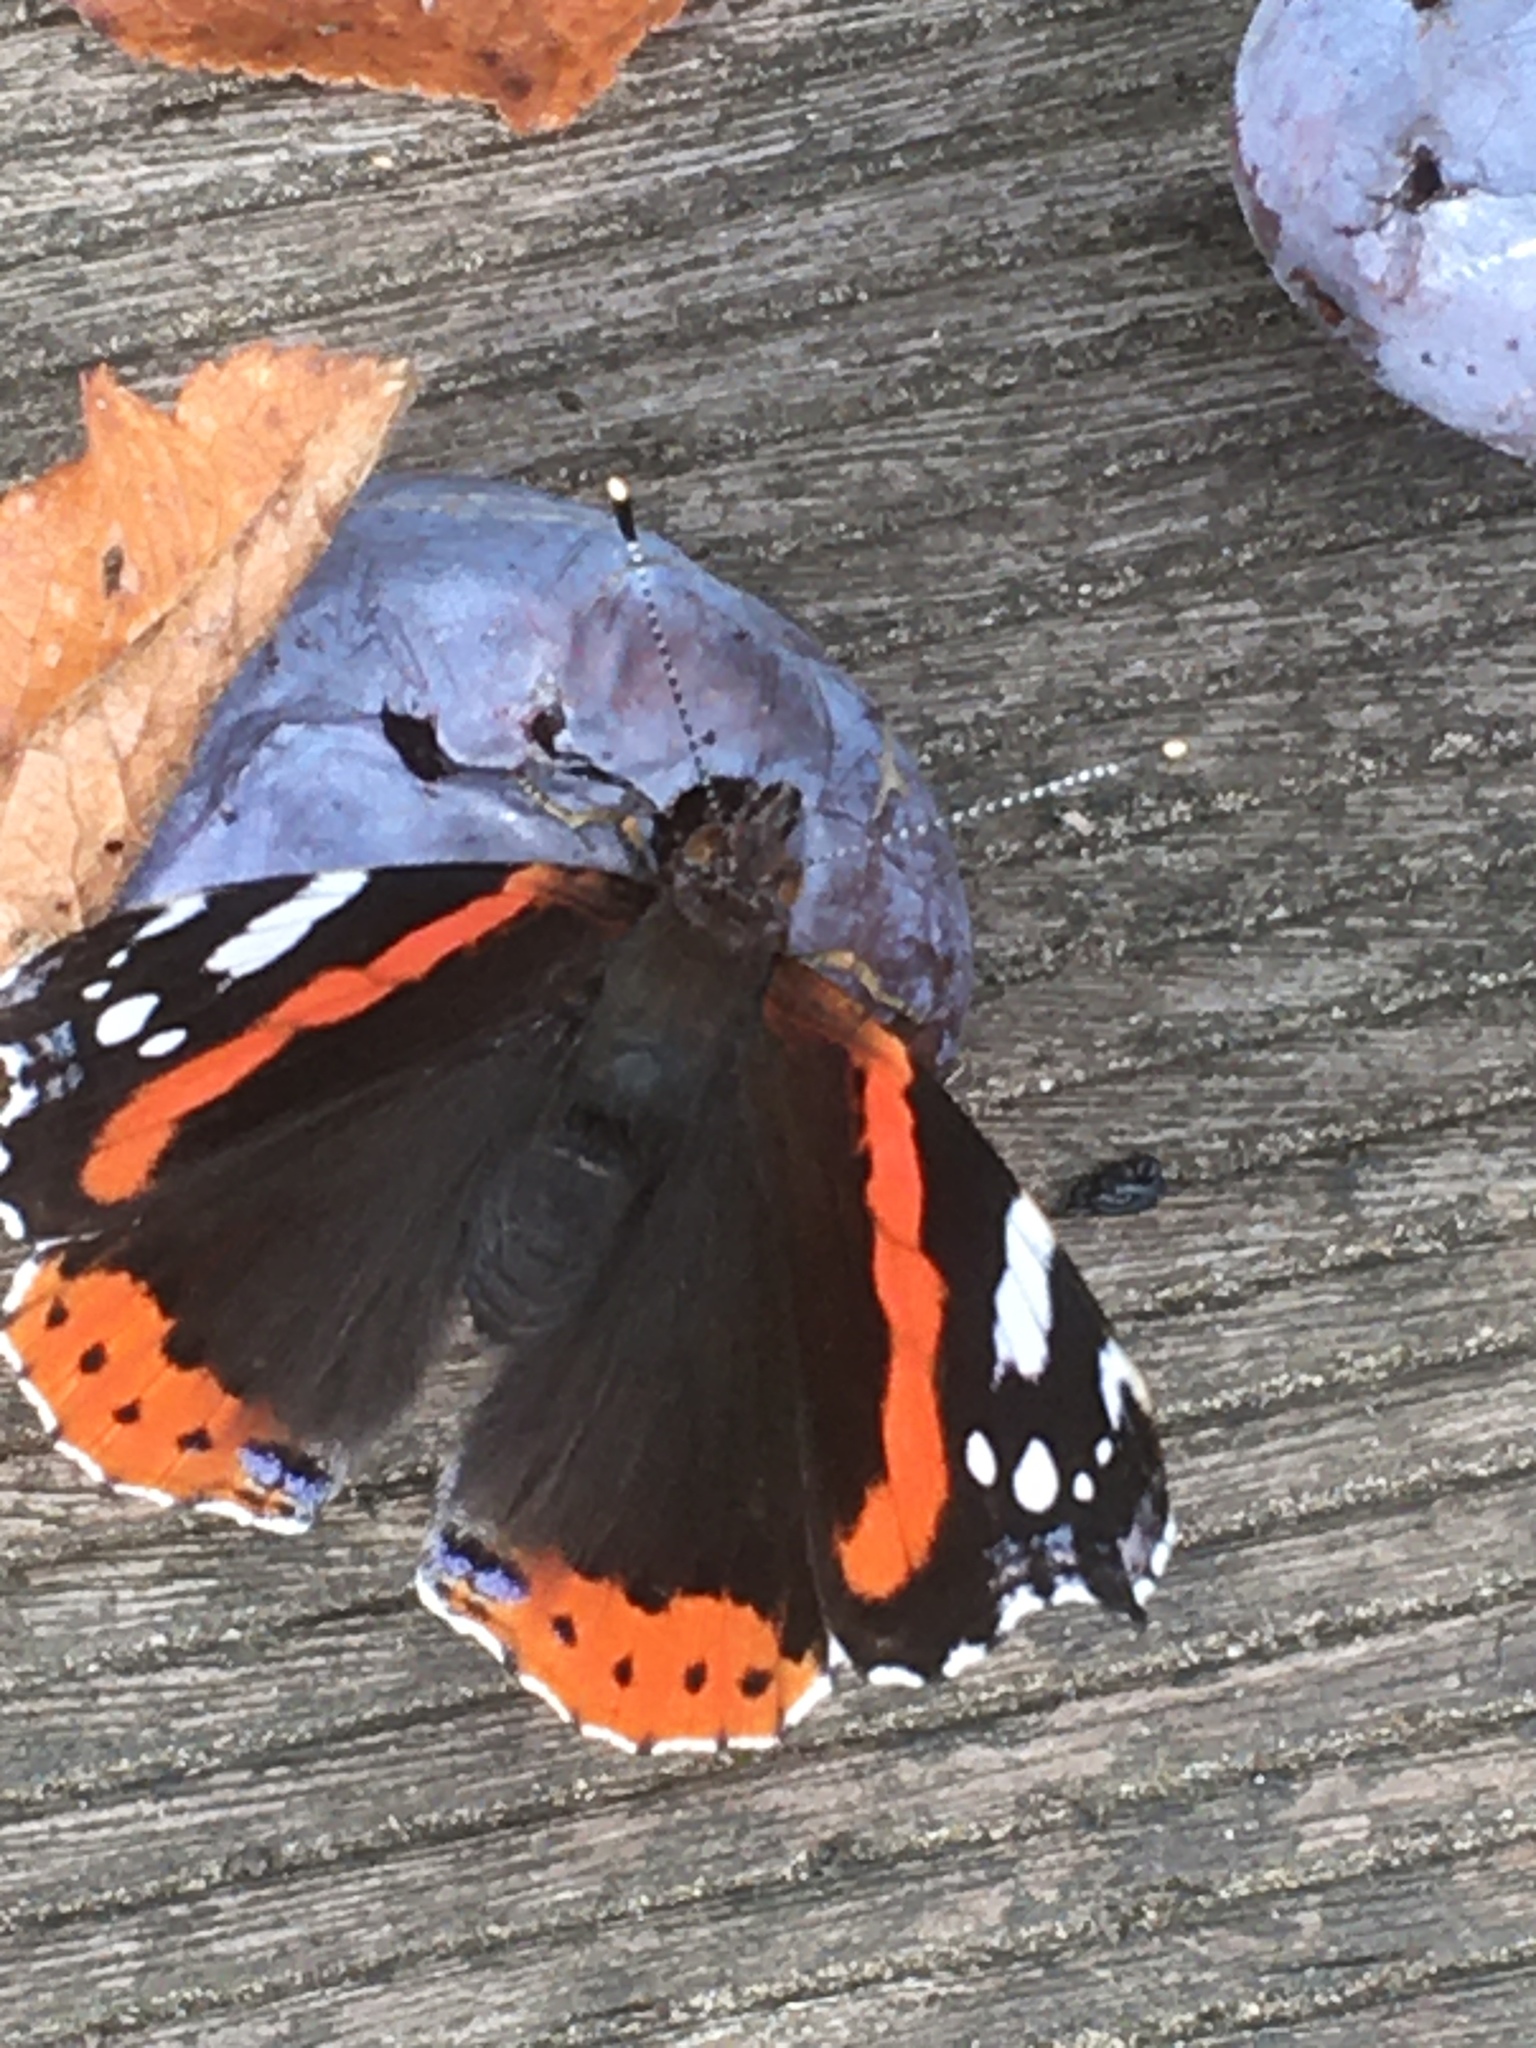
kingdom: Animalia
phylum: Arthropoda
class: Insecta
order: Lepidoptera
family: Nymphalidae
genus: Vanessa
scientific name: Vanessa atalanta
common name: Red admiral
